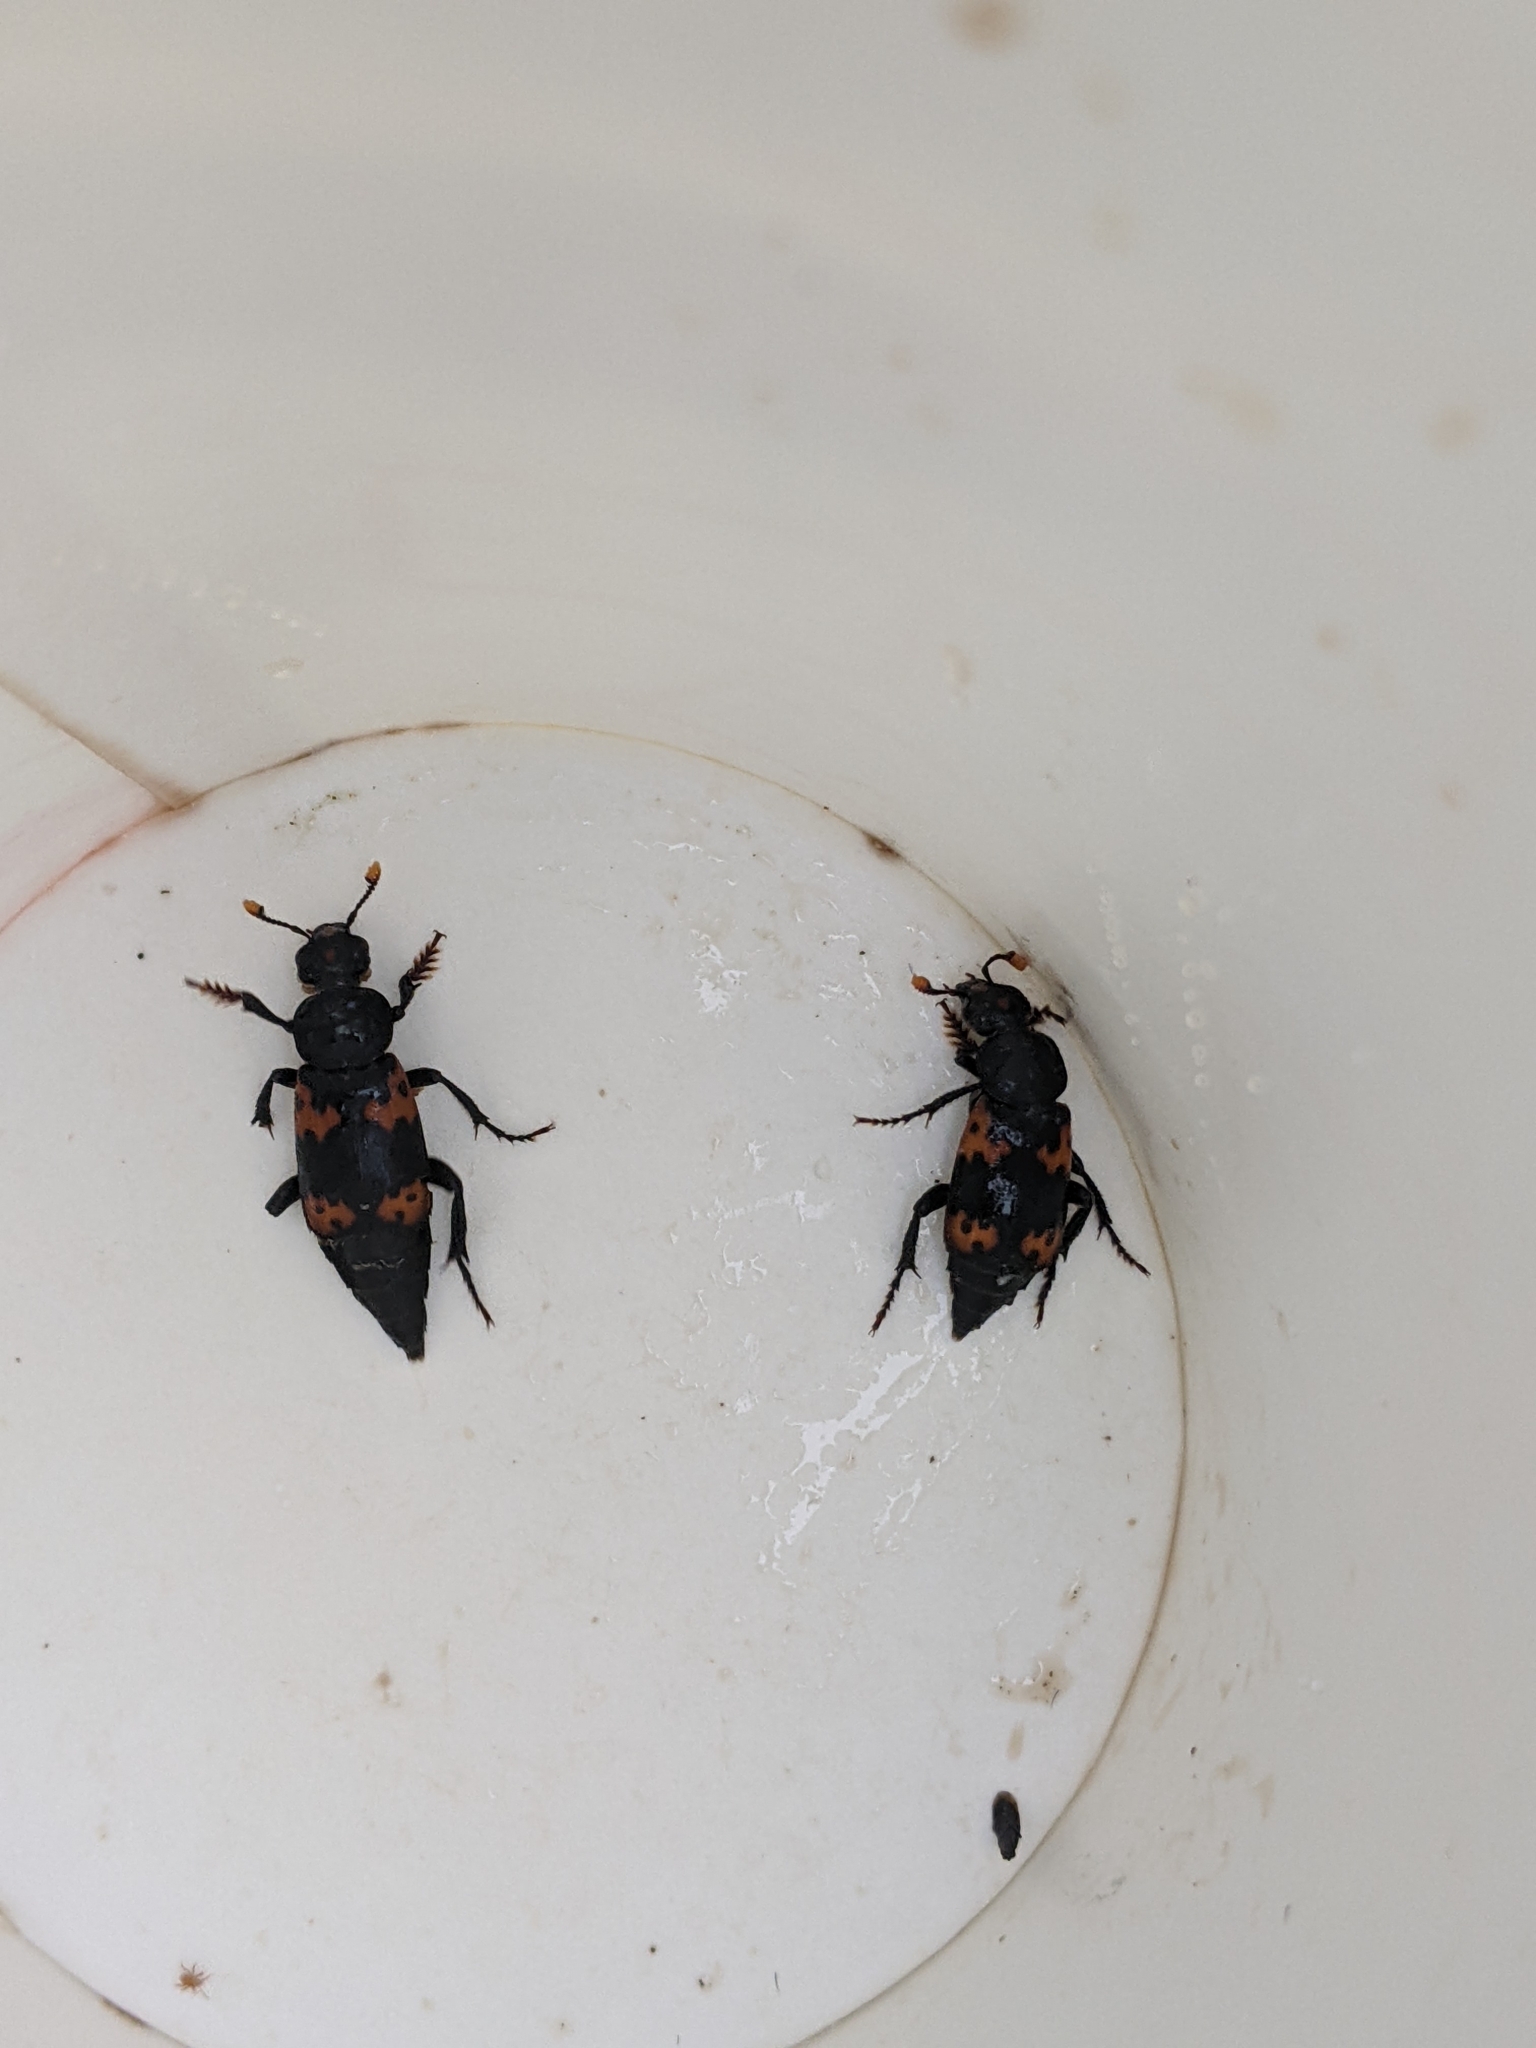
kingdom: Animalia
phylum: Arthropoda
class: Insecta
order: Coleoptera
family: Staphylinidae
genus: Nicrophorus
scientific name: Nicrophorus nepalensis
